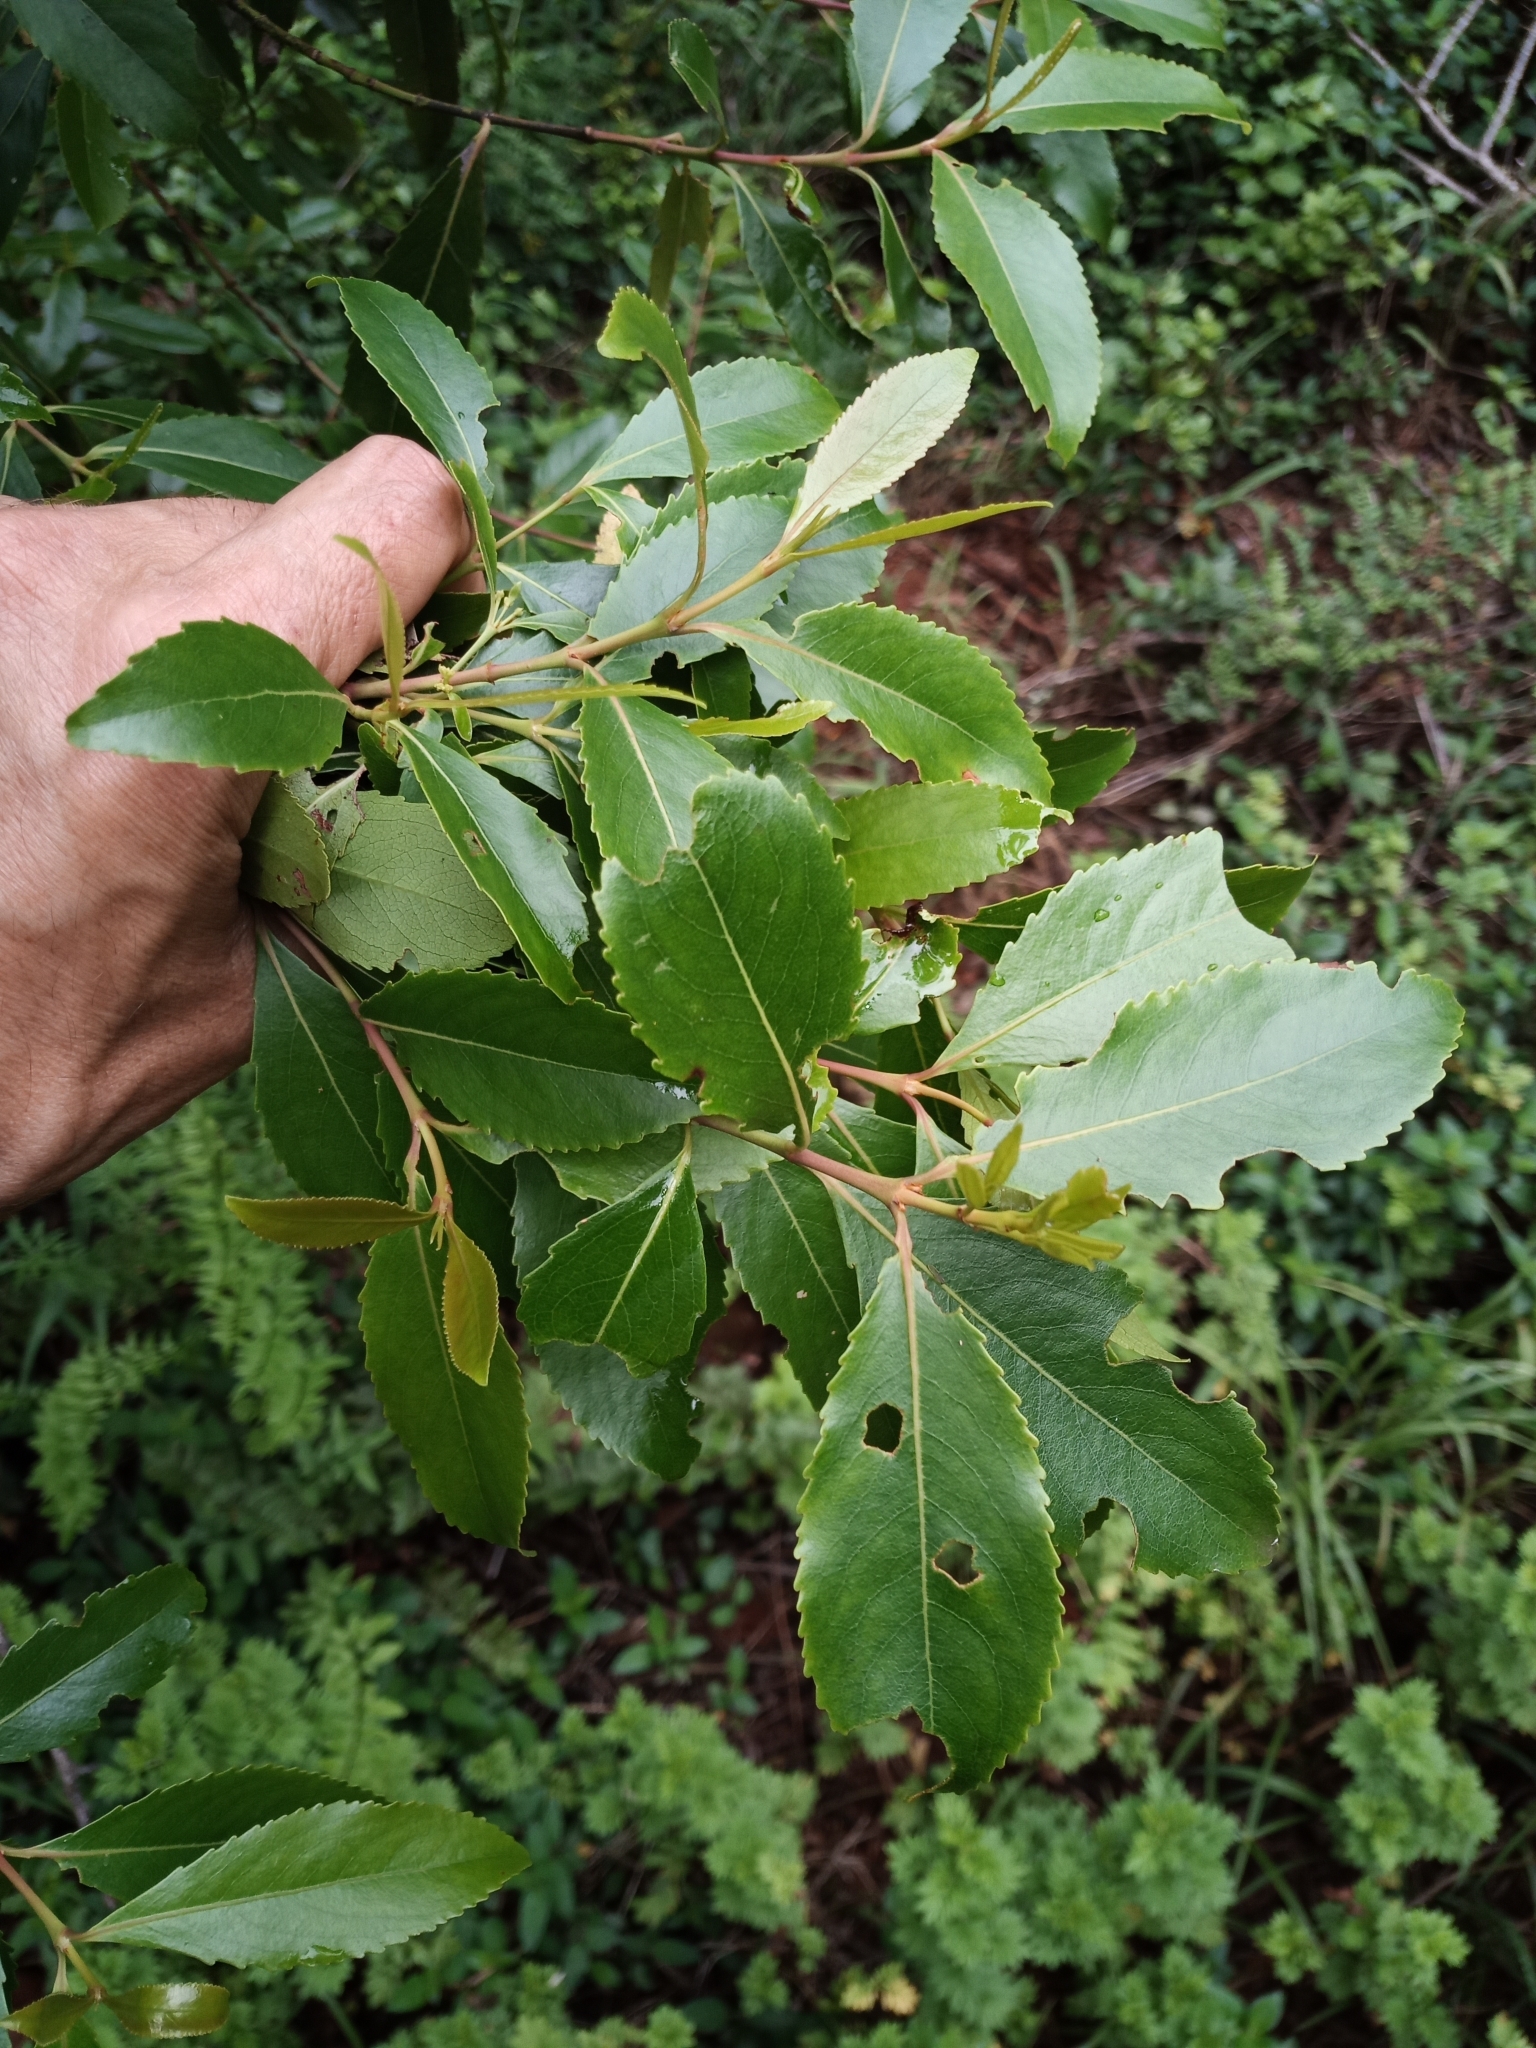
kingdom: Plantae
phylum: Tracheophyta
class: Magnoliopsida
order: Celastrales
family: Celastraceae
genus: Catha
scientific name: Catha edulis
